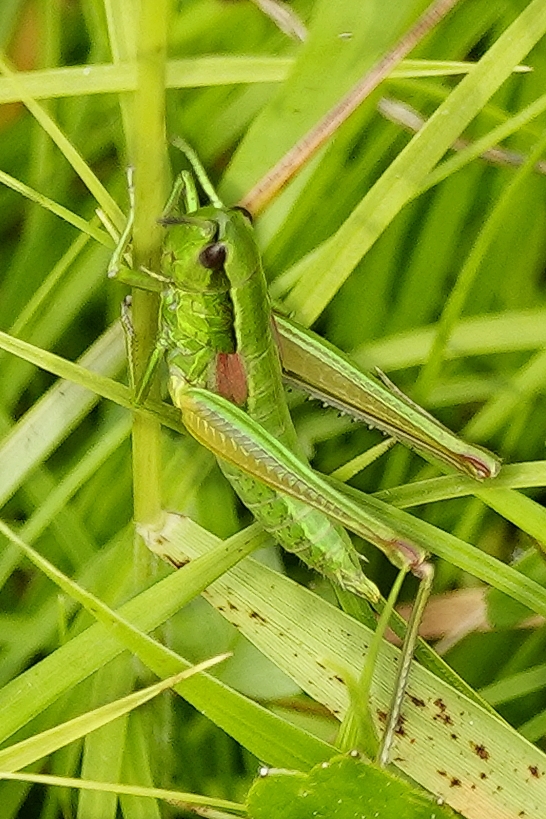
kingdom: Animalia
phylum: Arthropoda
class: Insecta
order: Orthoptera
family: Acrididae
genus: Euthystira
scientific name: Euthystira brachyptera
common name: Small gold grasshopper
